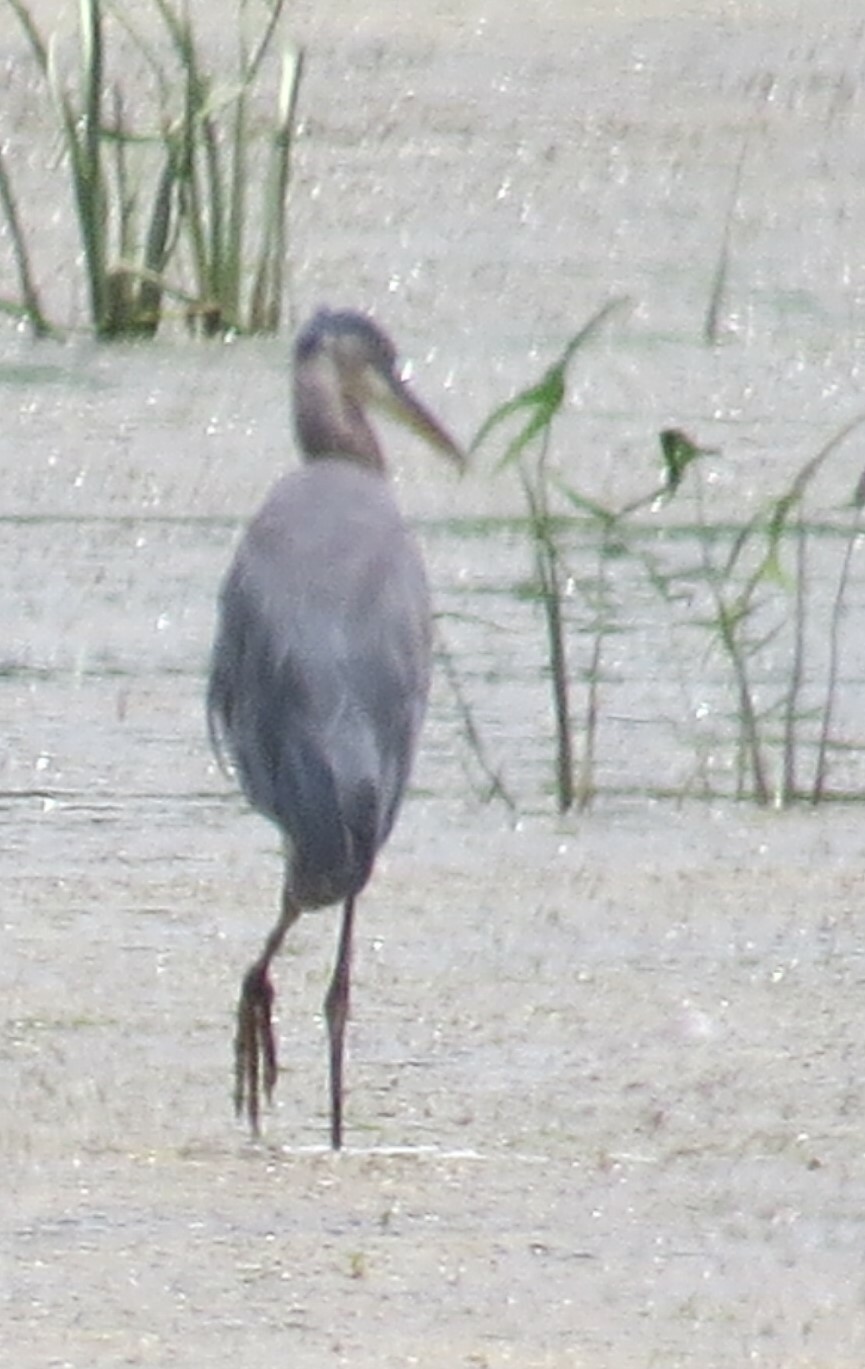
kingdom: Animalia
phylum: Chordata
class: Aves
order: Pelecaniformes
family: Ardeidae
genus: Ardea
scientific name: Ardea herodias
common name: Great blue heron
